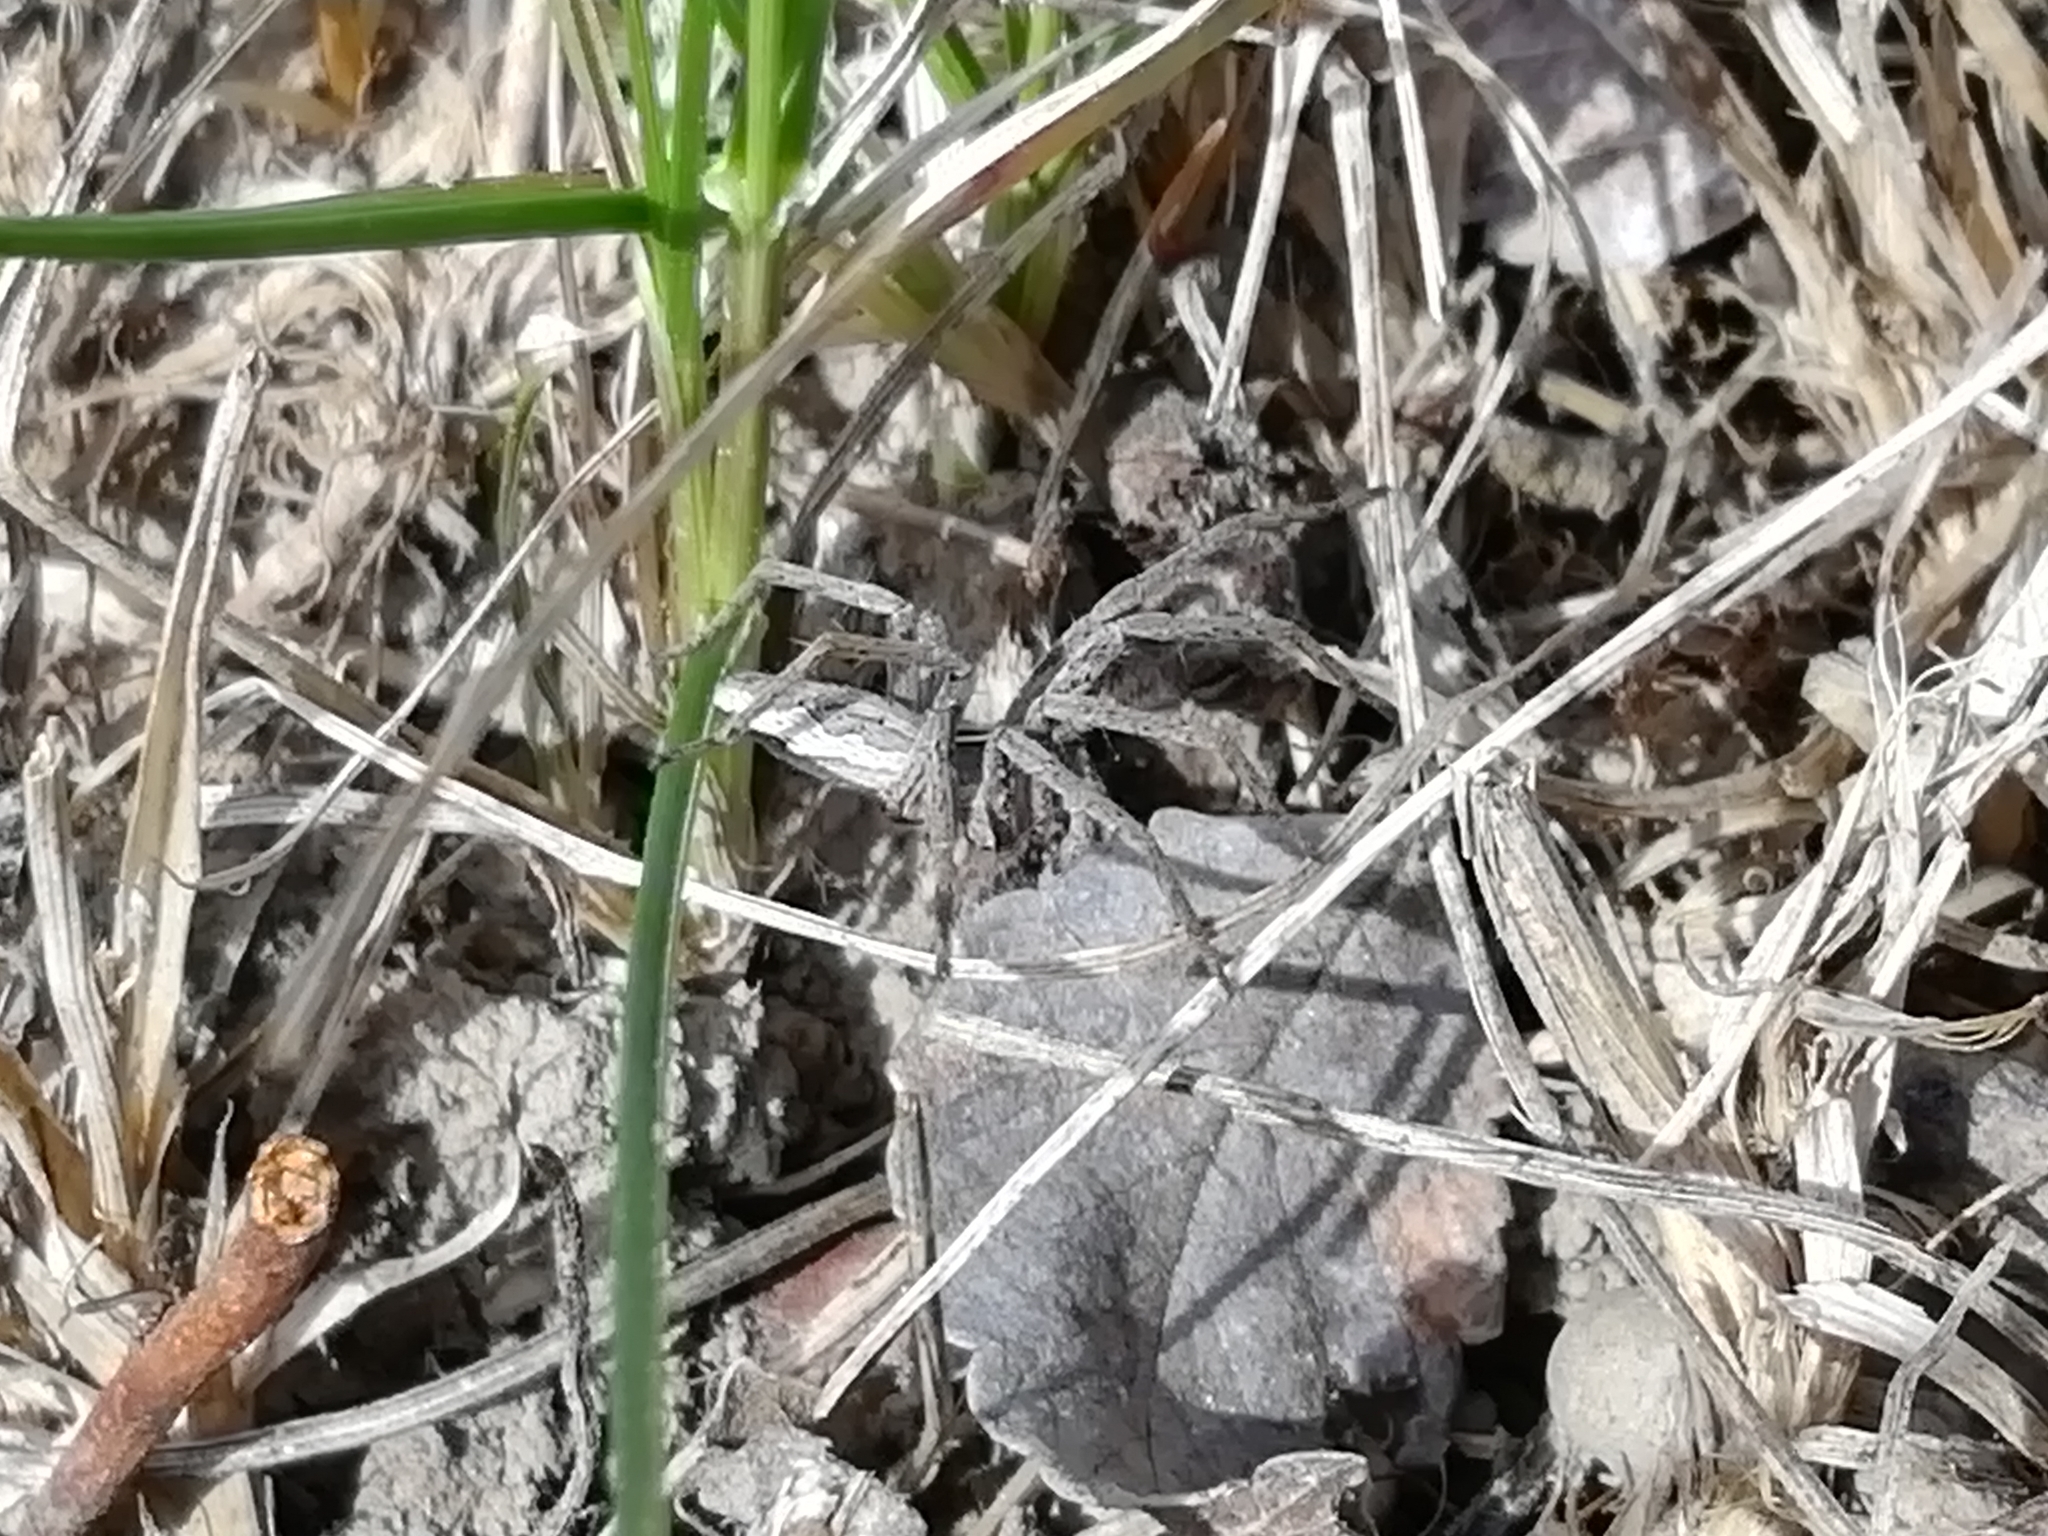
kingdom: Animalia
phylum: Arthropoda
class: Arachnida
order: Araneae
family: Pisauridae
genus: Pisaura
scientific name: Pisaura mirabilis
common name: Tent spider
